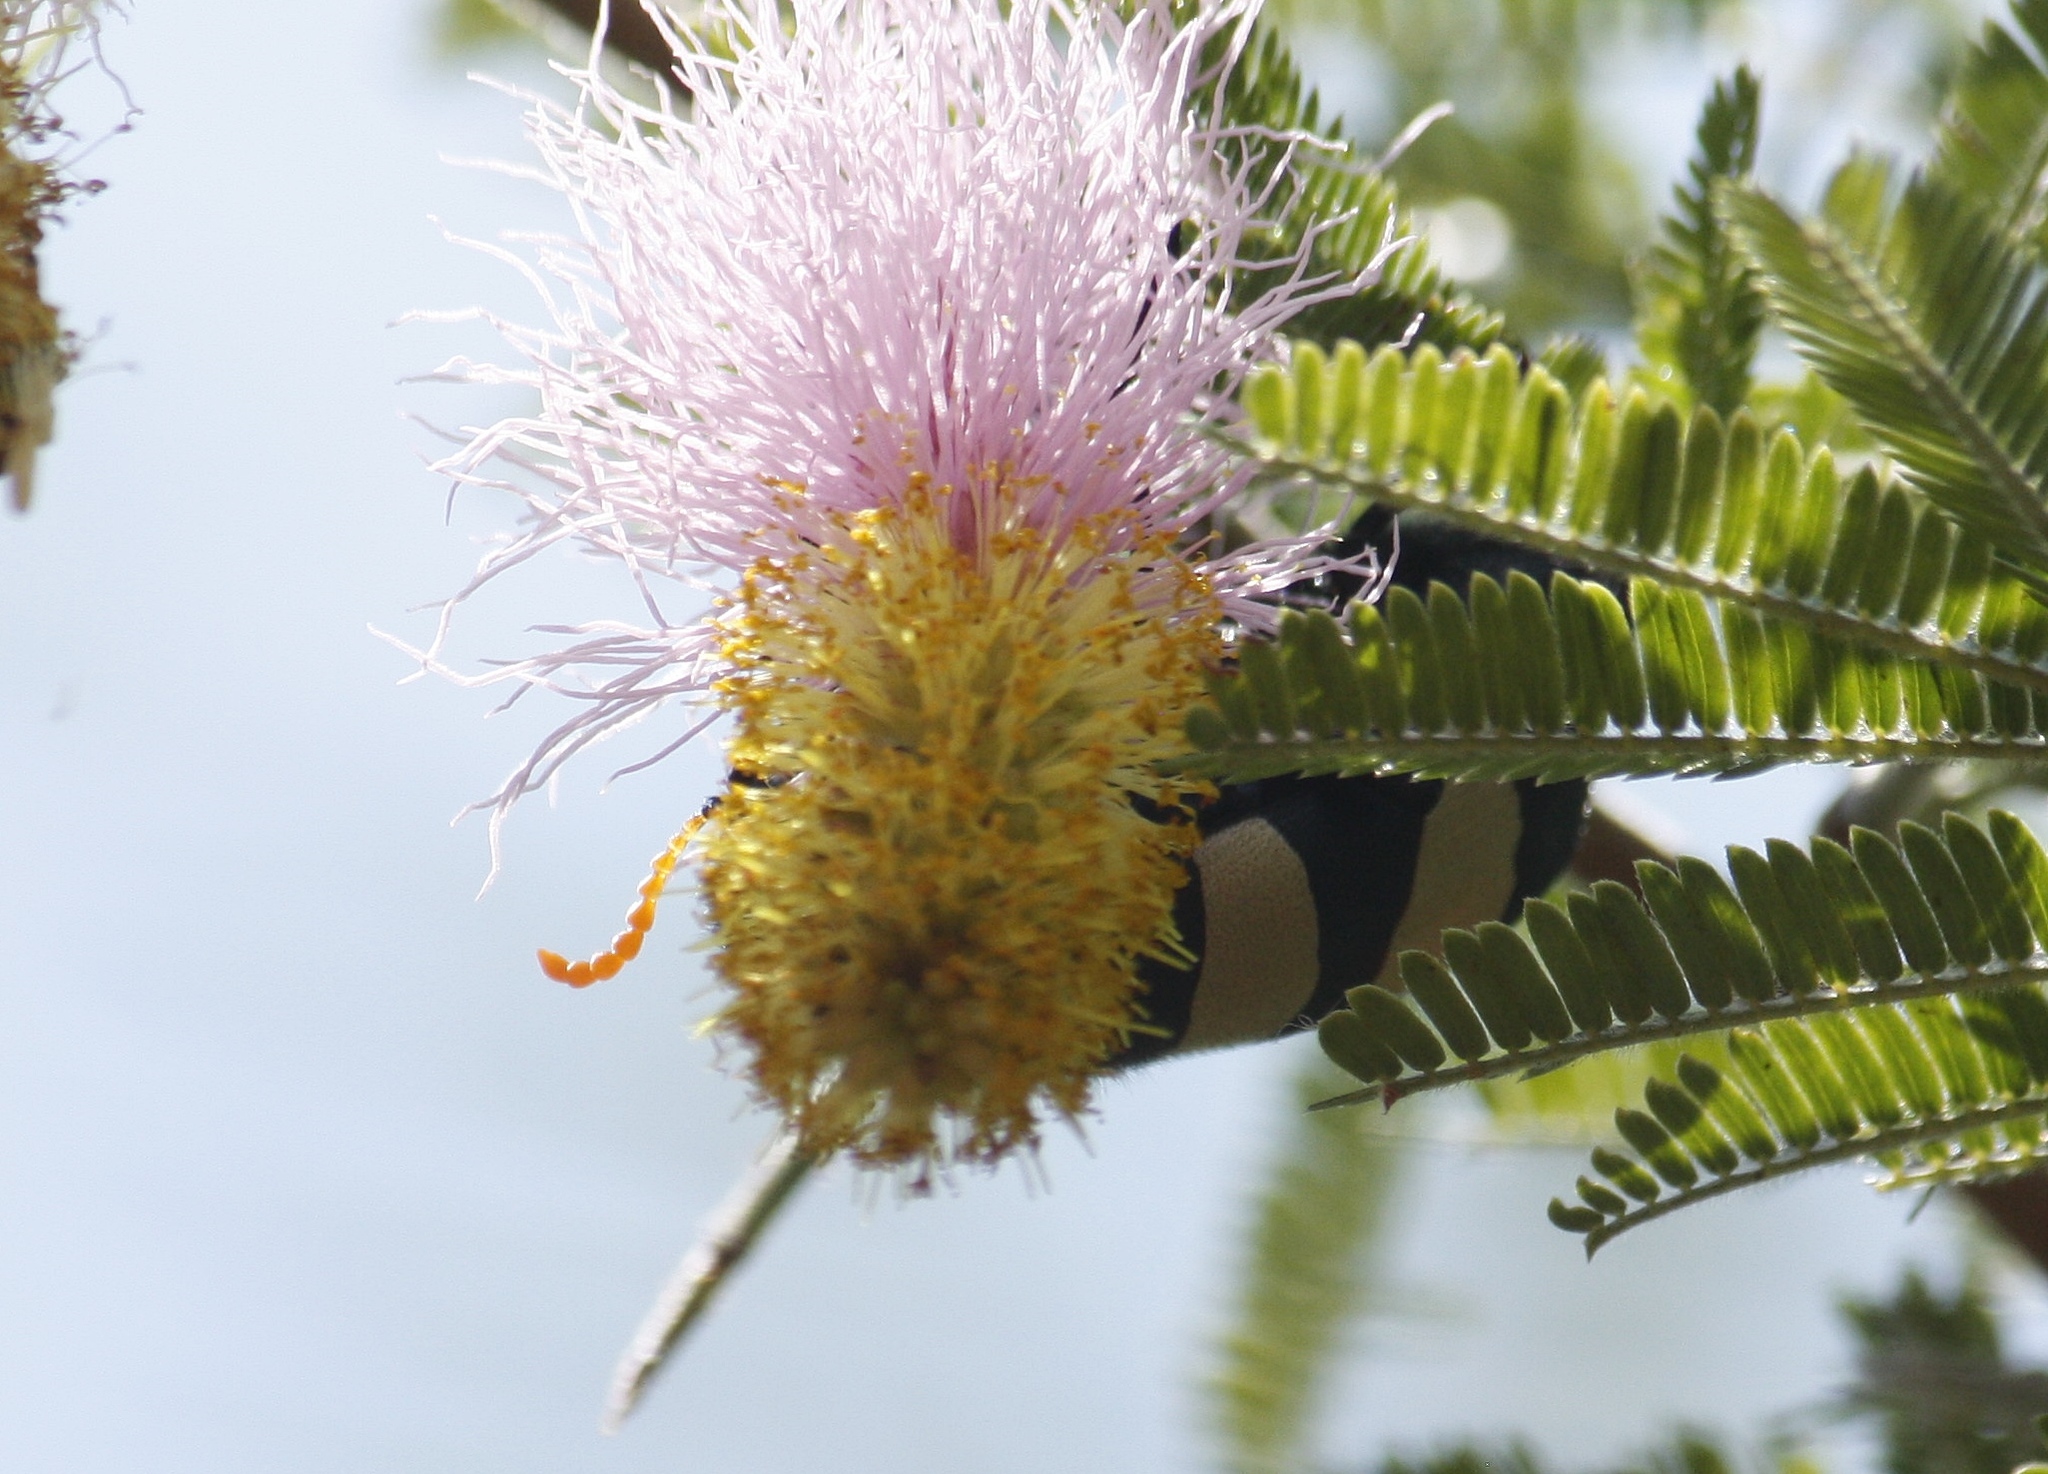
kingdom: Animalia
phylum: Arthropoda
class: Insecta
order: Coleoptera
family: Meloidae
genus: Hycleus
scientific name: Hycleus
